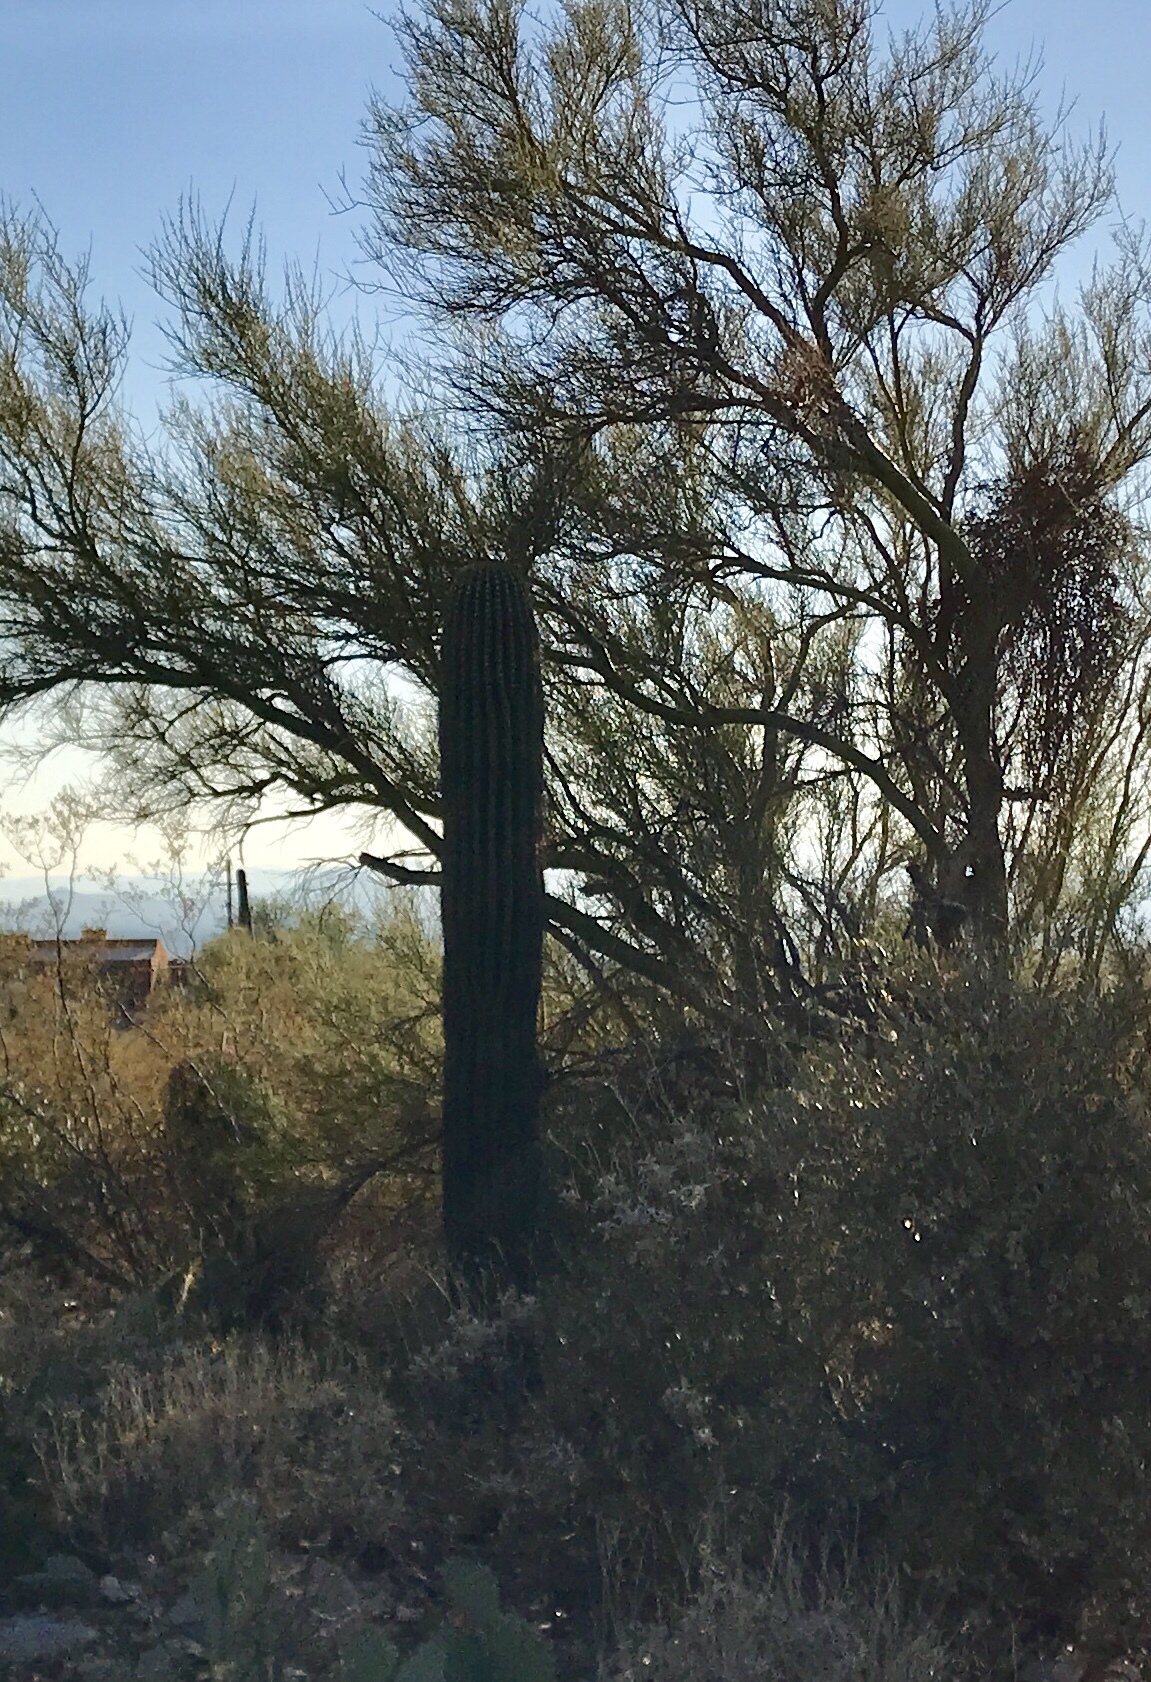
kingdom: Plantae
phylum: Tracheophyta
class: Magnoliopsida
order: Caryophyllales
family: Cactaceae
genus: Carnegiea
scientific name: Carnegiea gigantea
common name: Saguaro
